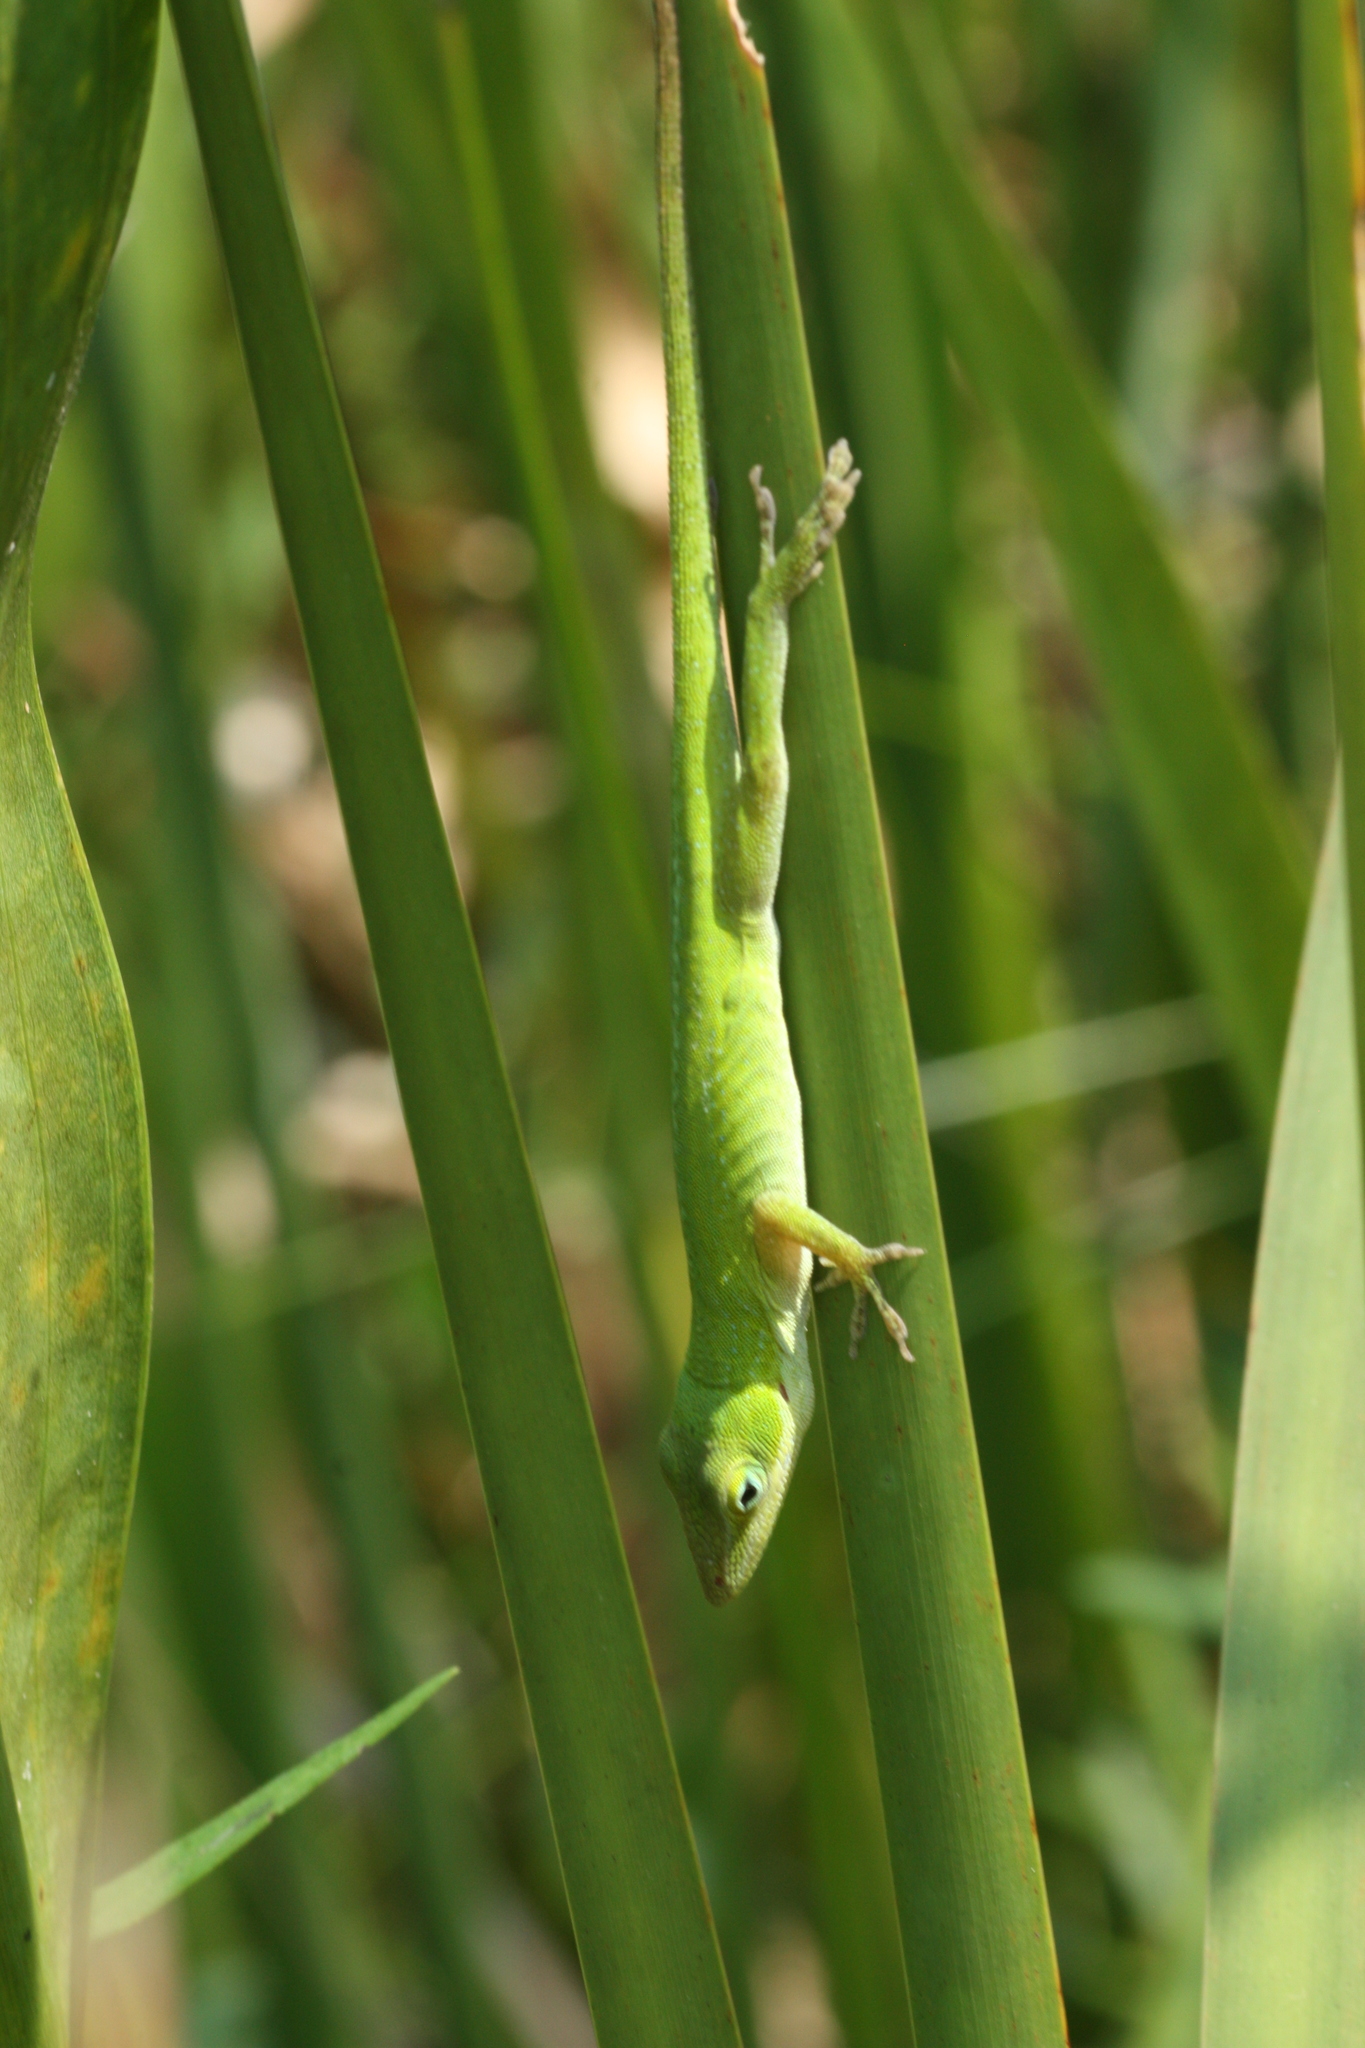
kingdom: Animalia
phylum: Chordata
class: Squamata
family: Dactyloidae
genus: Anolis
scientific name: Anolis carolinensis
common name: Green anole
